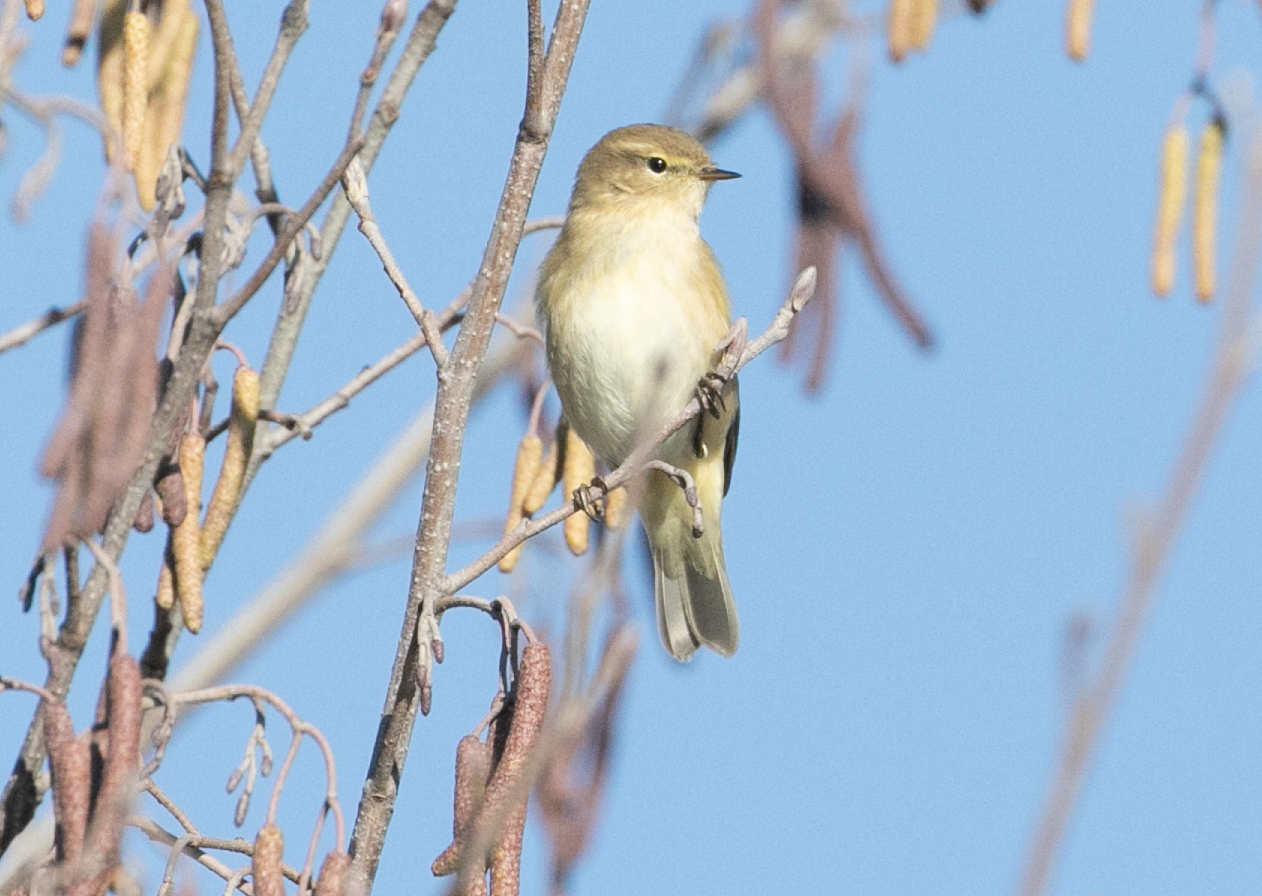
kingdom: Animalia
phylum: Chordata
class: Aves
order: Passeriformes
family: Phylloscopidae
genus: Phylloscopus
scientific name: Phylloscopus collybita
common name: Common chiffchaff
